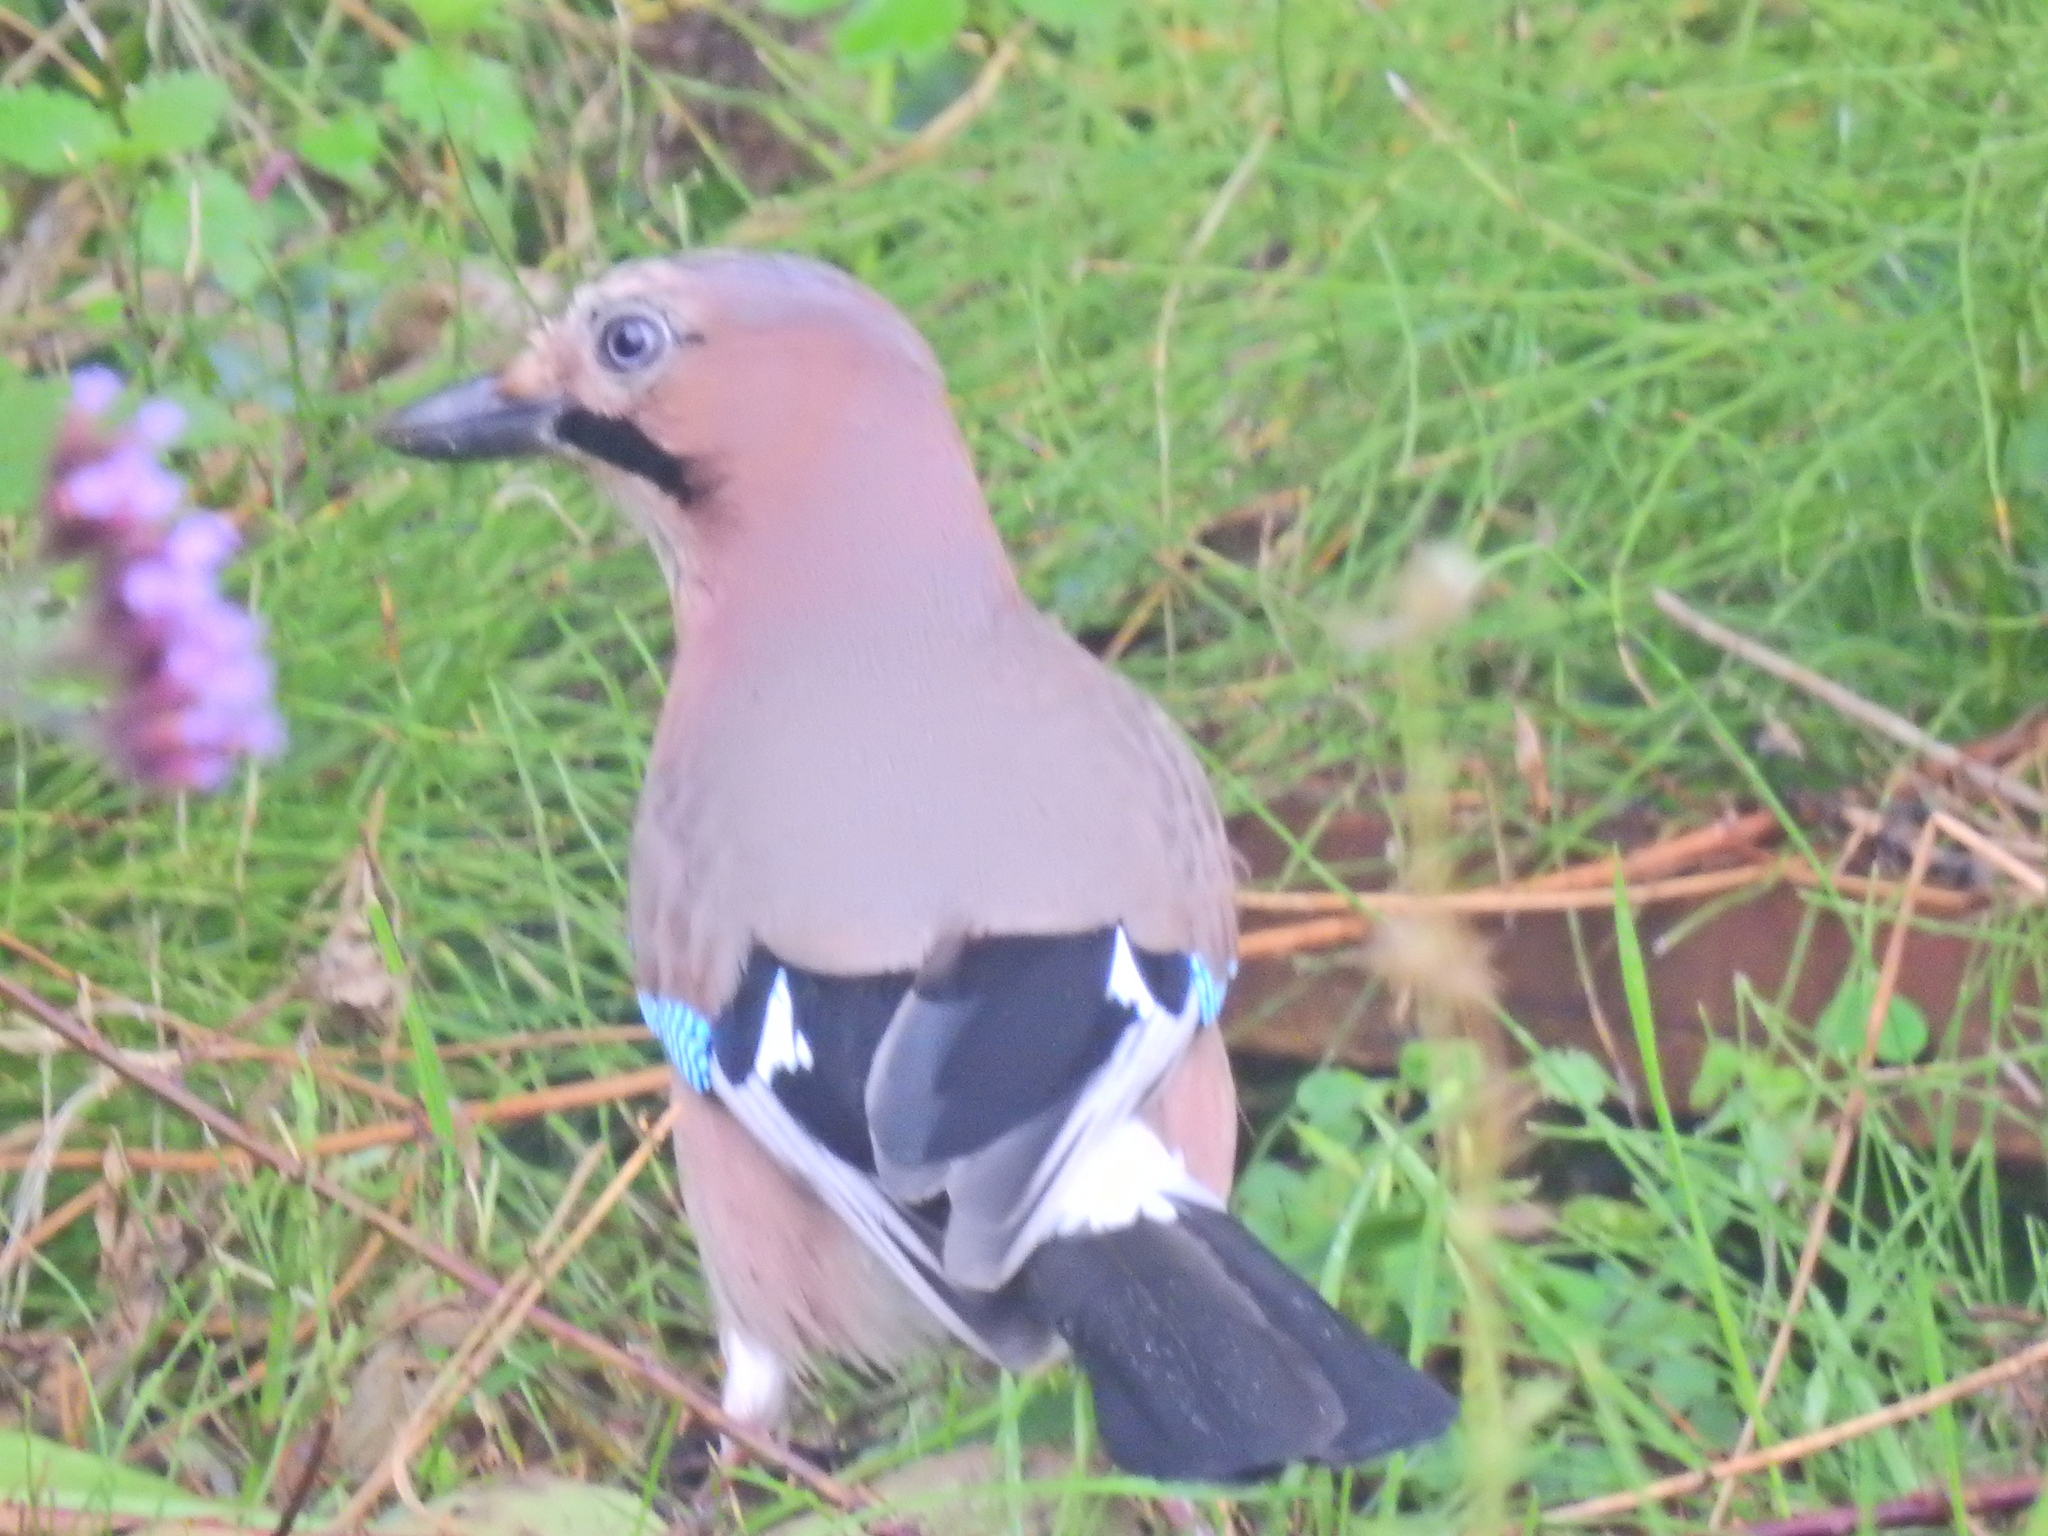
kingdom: Animalia
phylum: Chordata
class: Aves
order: Passeriformes
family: Corvidae
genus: Garrulus
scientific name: Garrulus glandarius
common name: Eurasian jay
